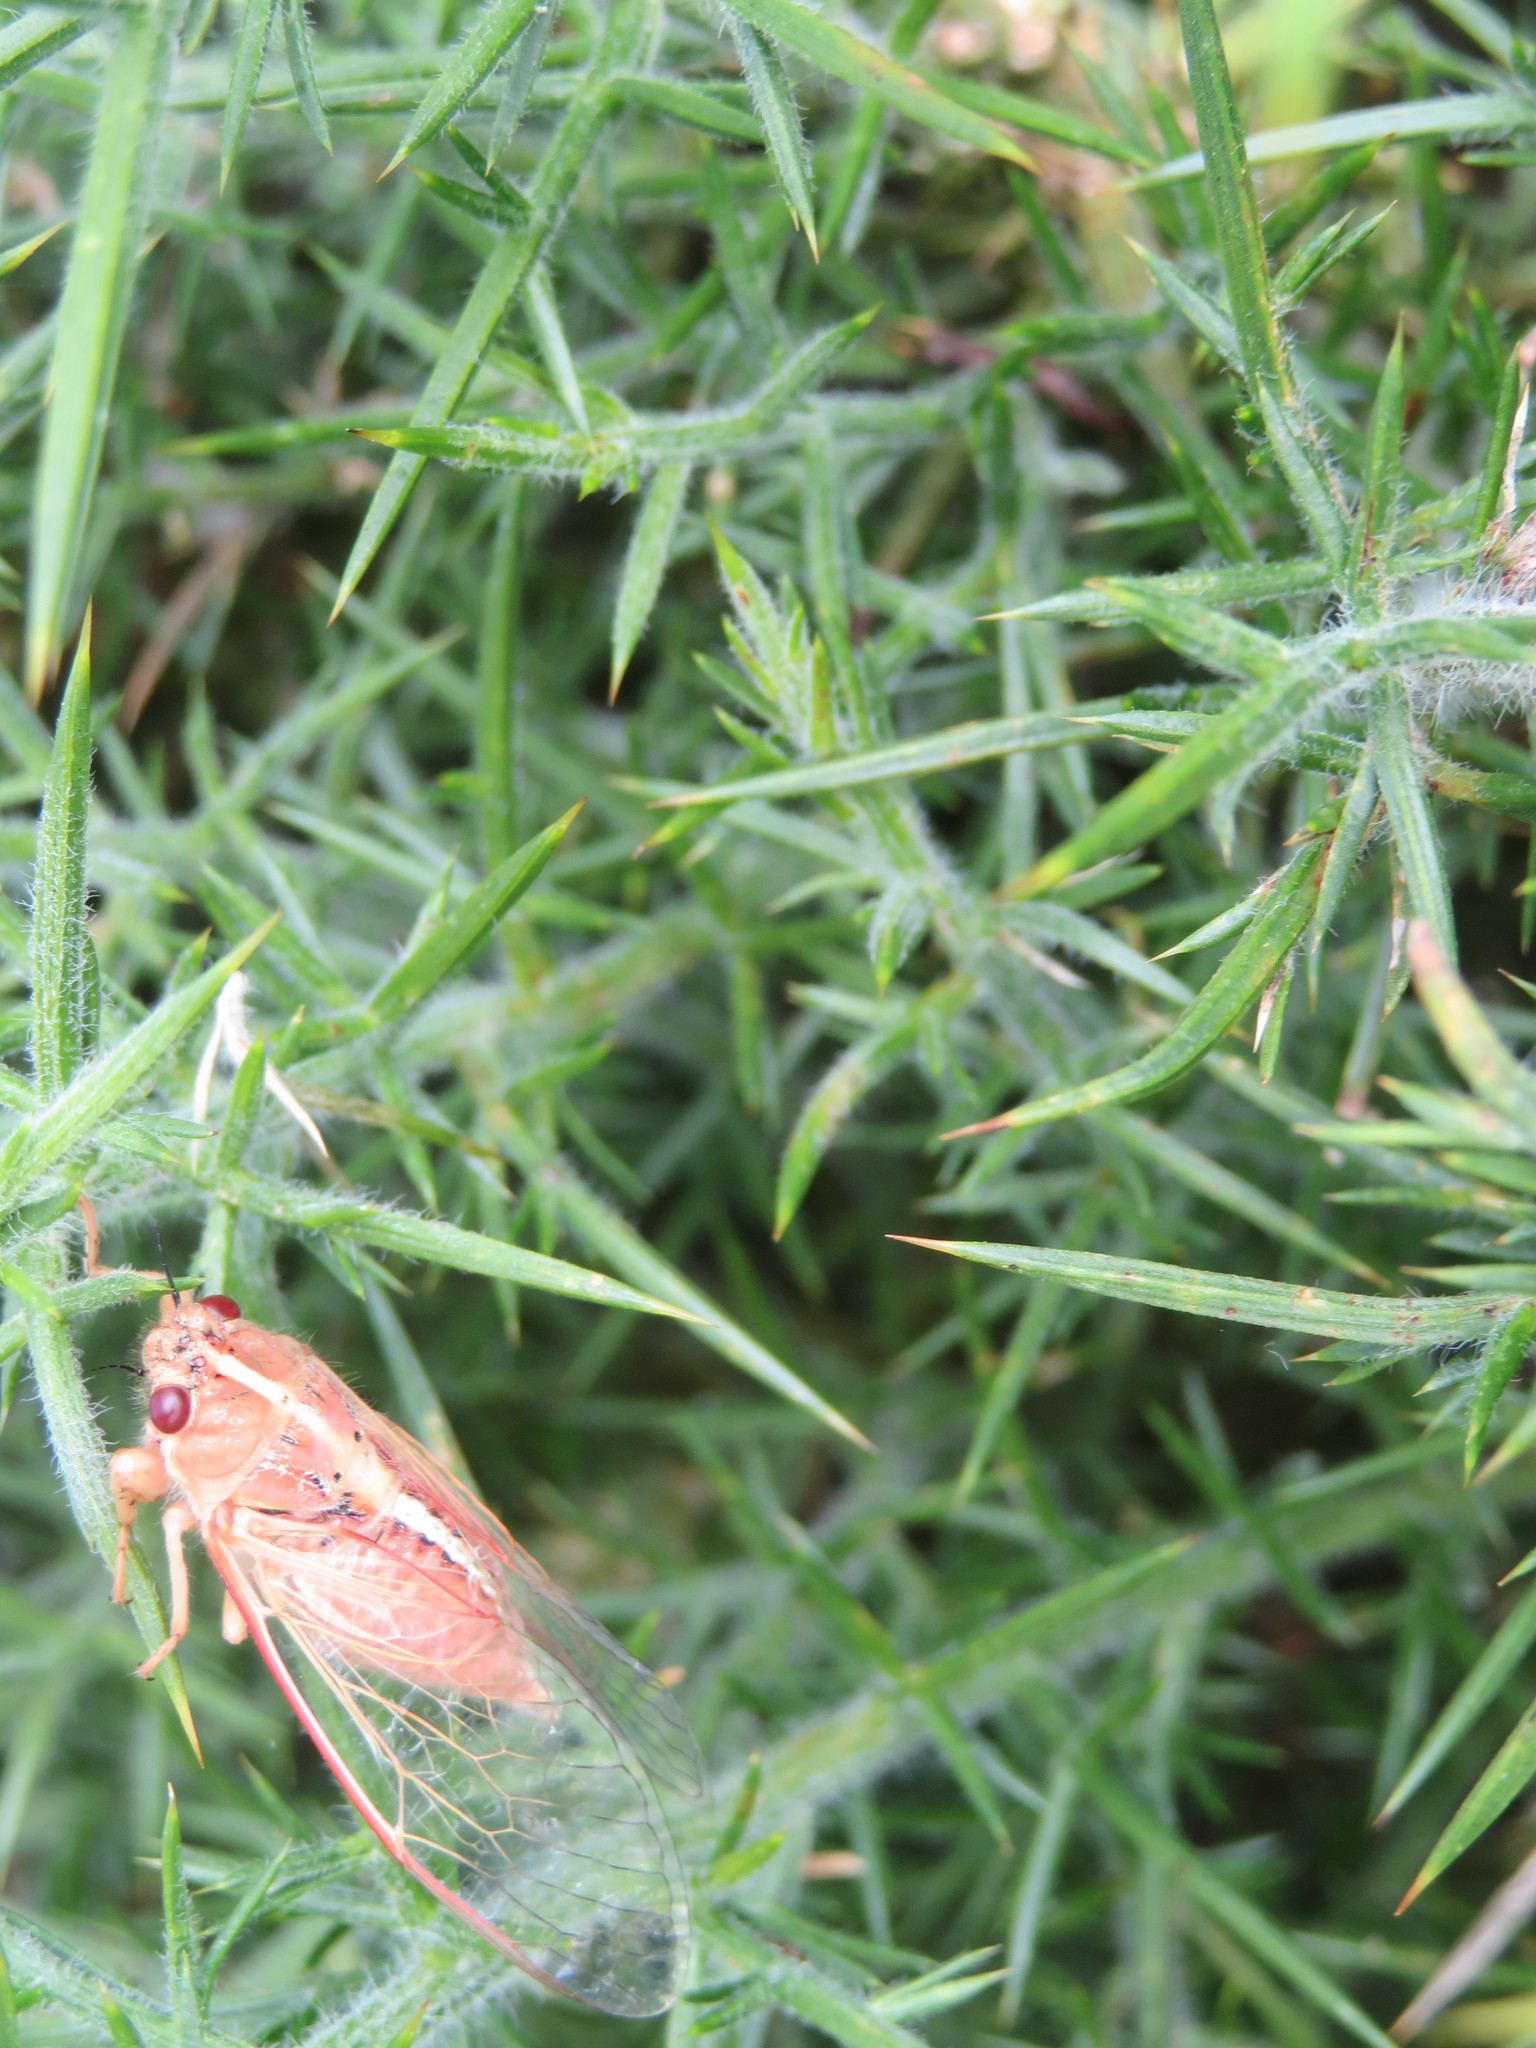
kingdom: Animalia
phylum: Arthropoda
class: Insecta
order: Hemiptera
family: Cicadidae
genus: Kikihia
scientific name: Kikihia muta
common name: Variable cicada
